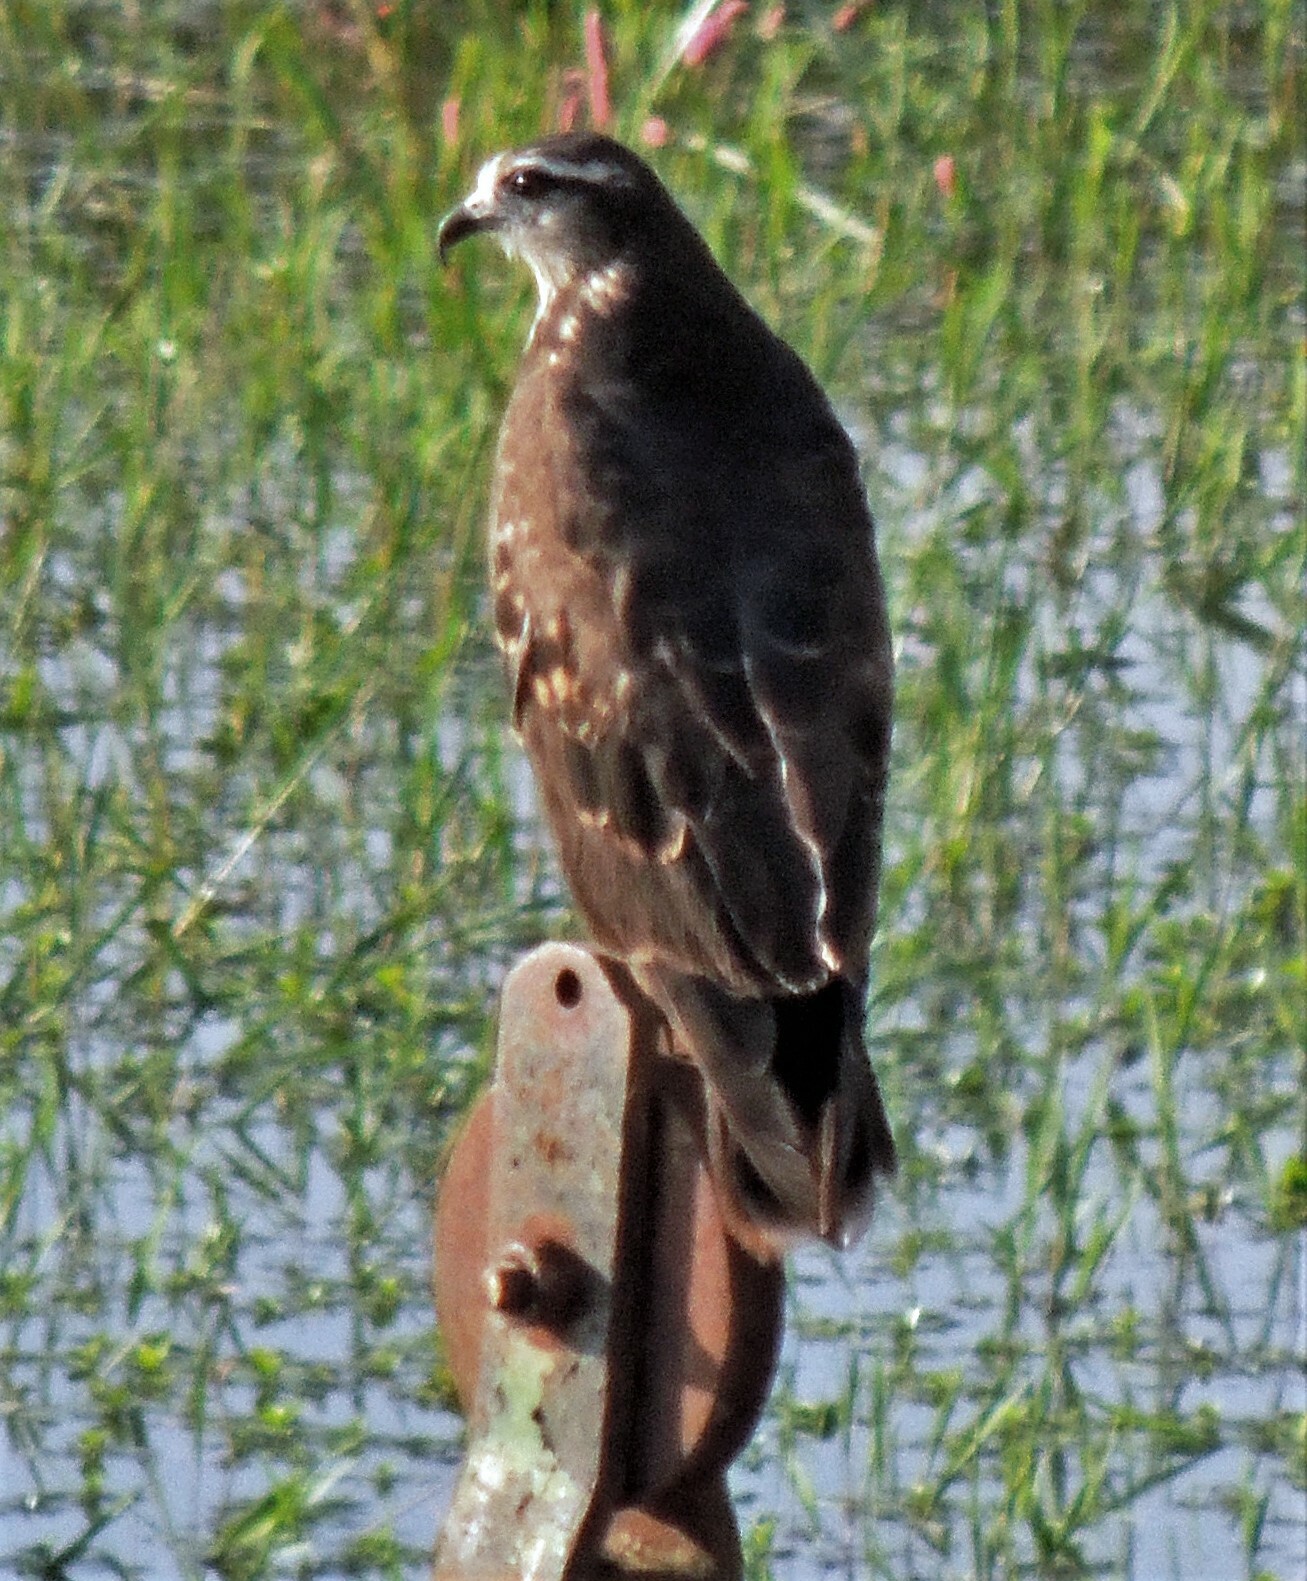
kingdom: Animalia
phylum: Chordata
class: Aves
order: Accipitriformes
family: Accipitridae
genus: Rostrhamus
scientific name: Rostrhamus sociabilis
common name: Snail kite
